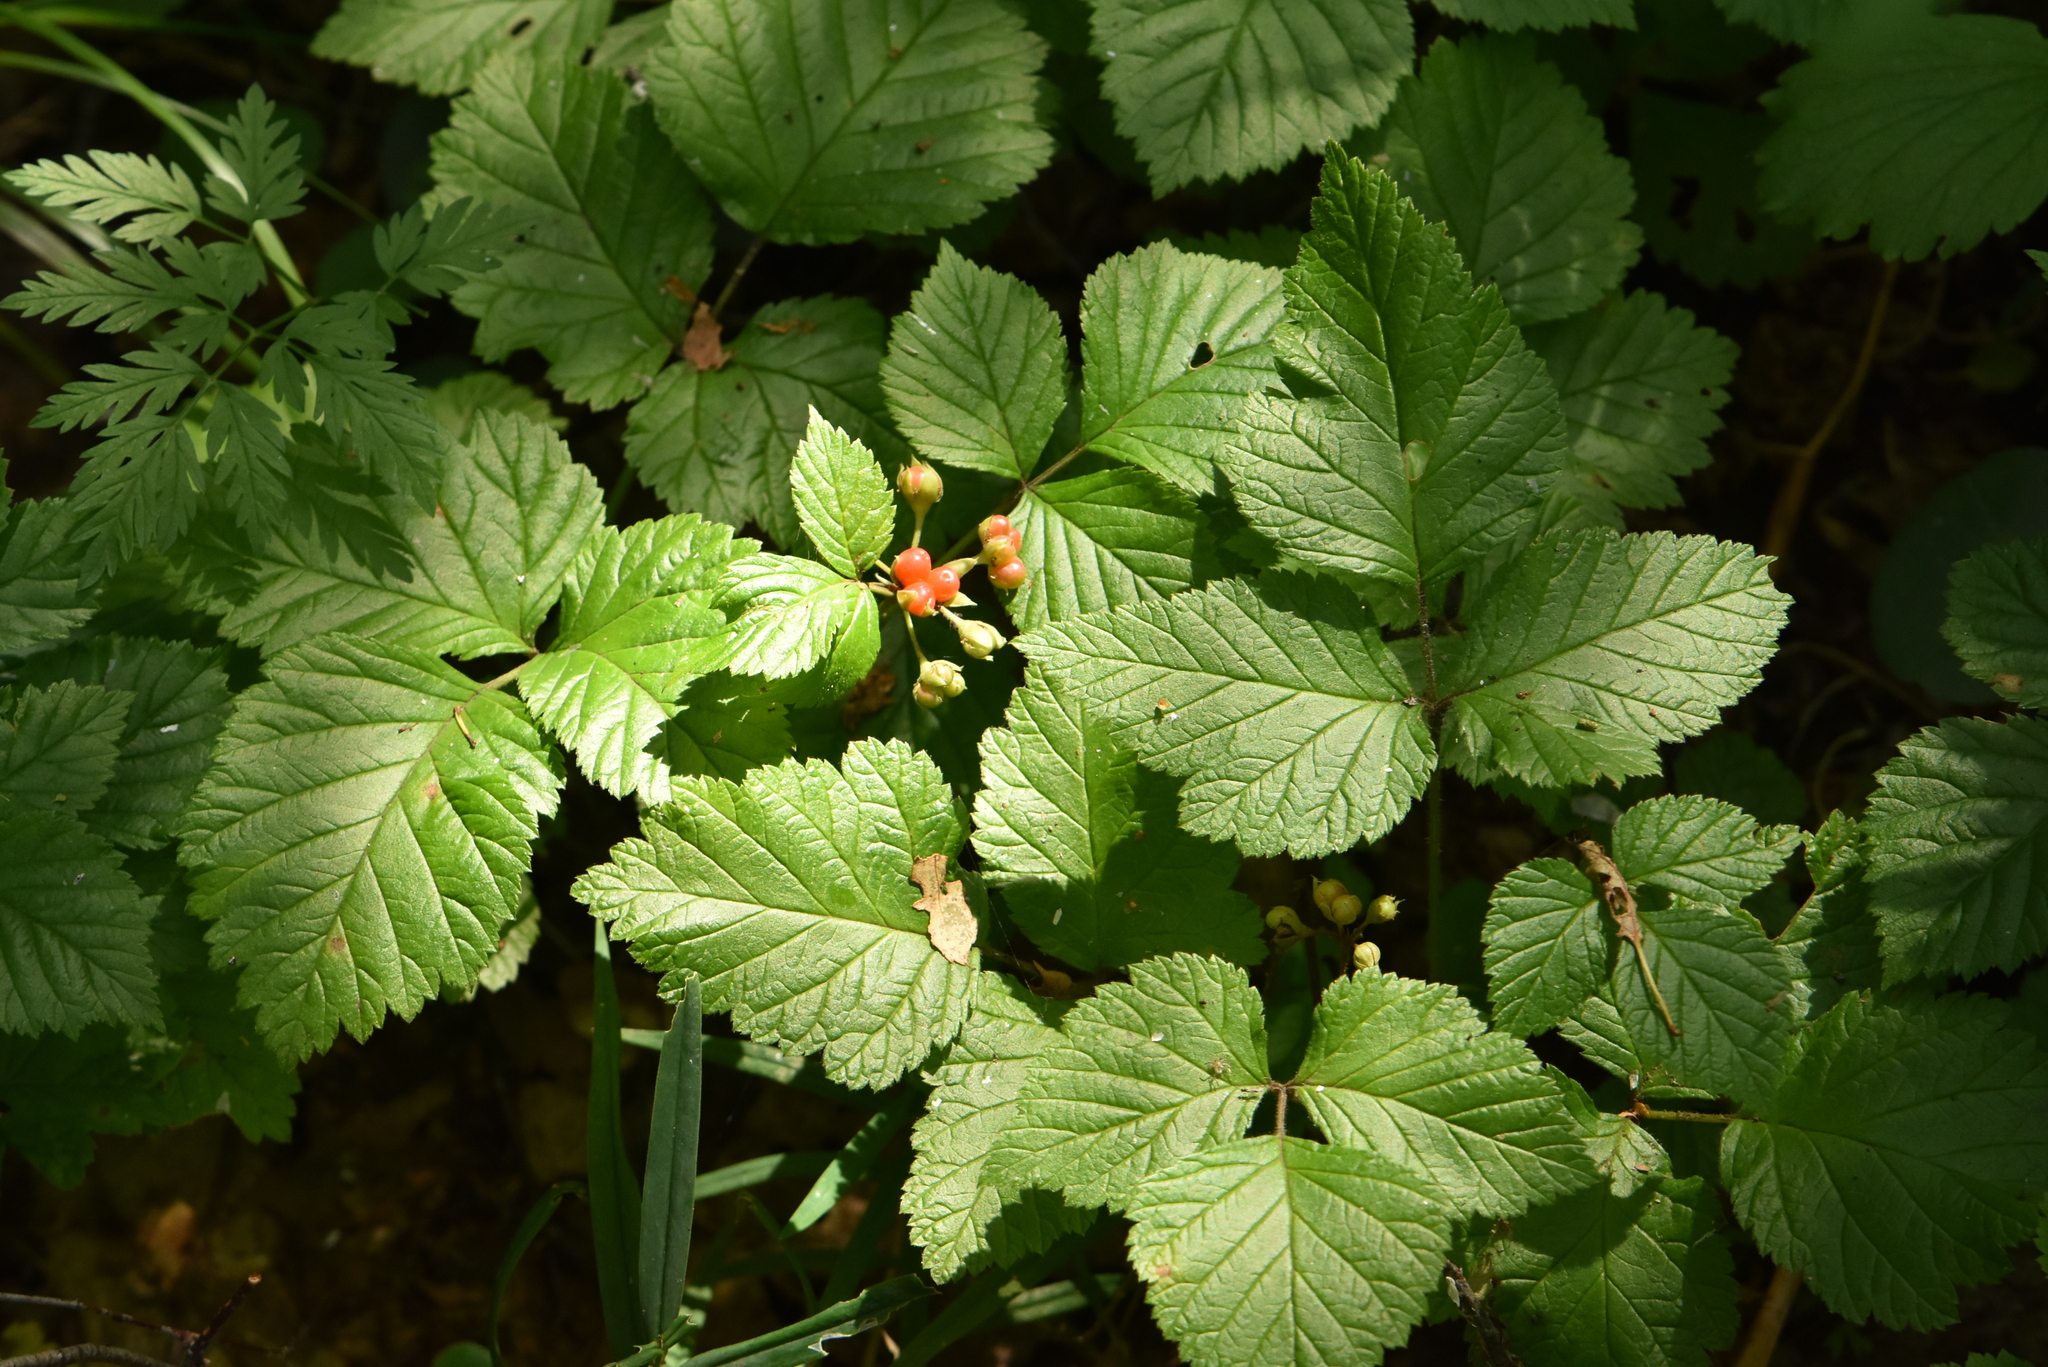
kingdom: Plantae
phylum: Tracheophyta
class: Magnoliopsida
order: Rosales
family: Rosaceae
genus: Rubus
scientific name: Rubus saxatilis
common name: Stone bramble
